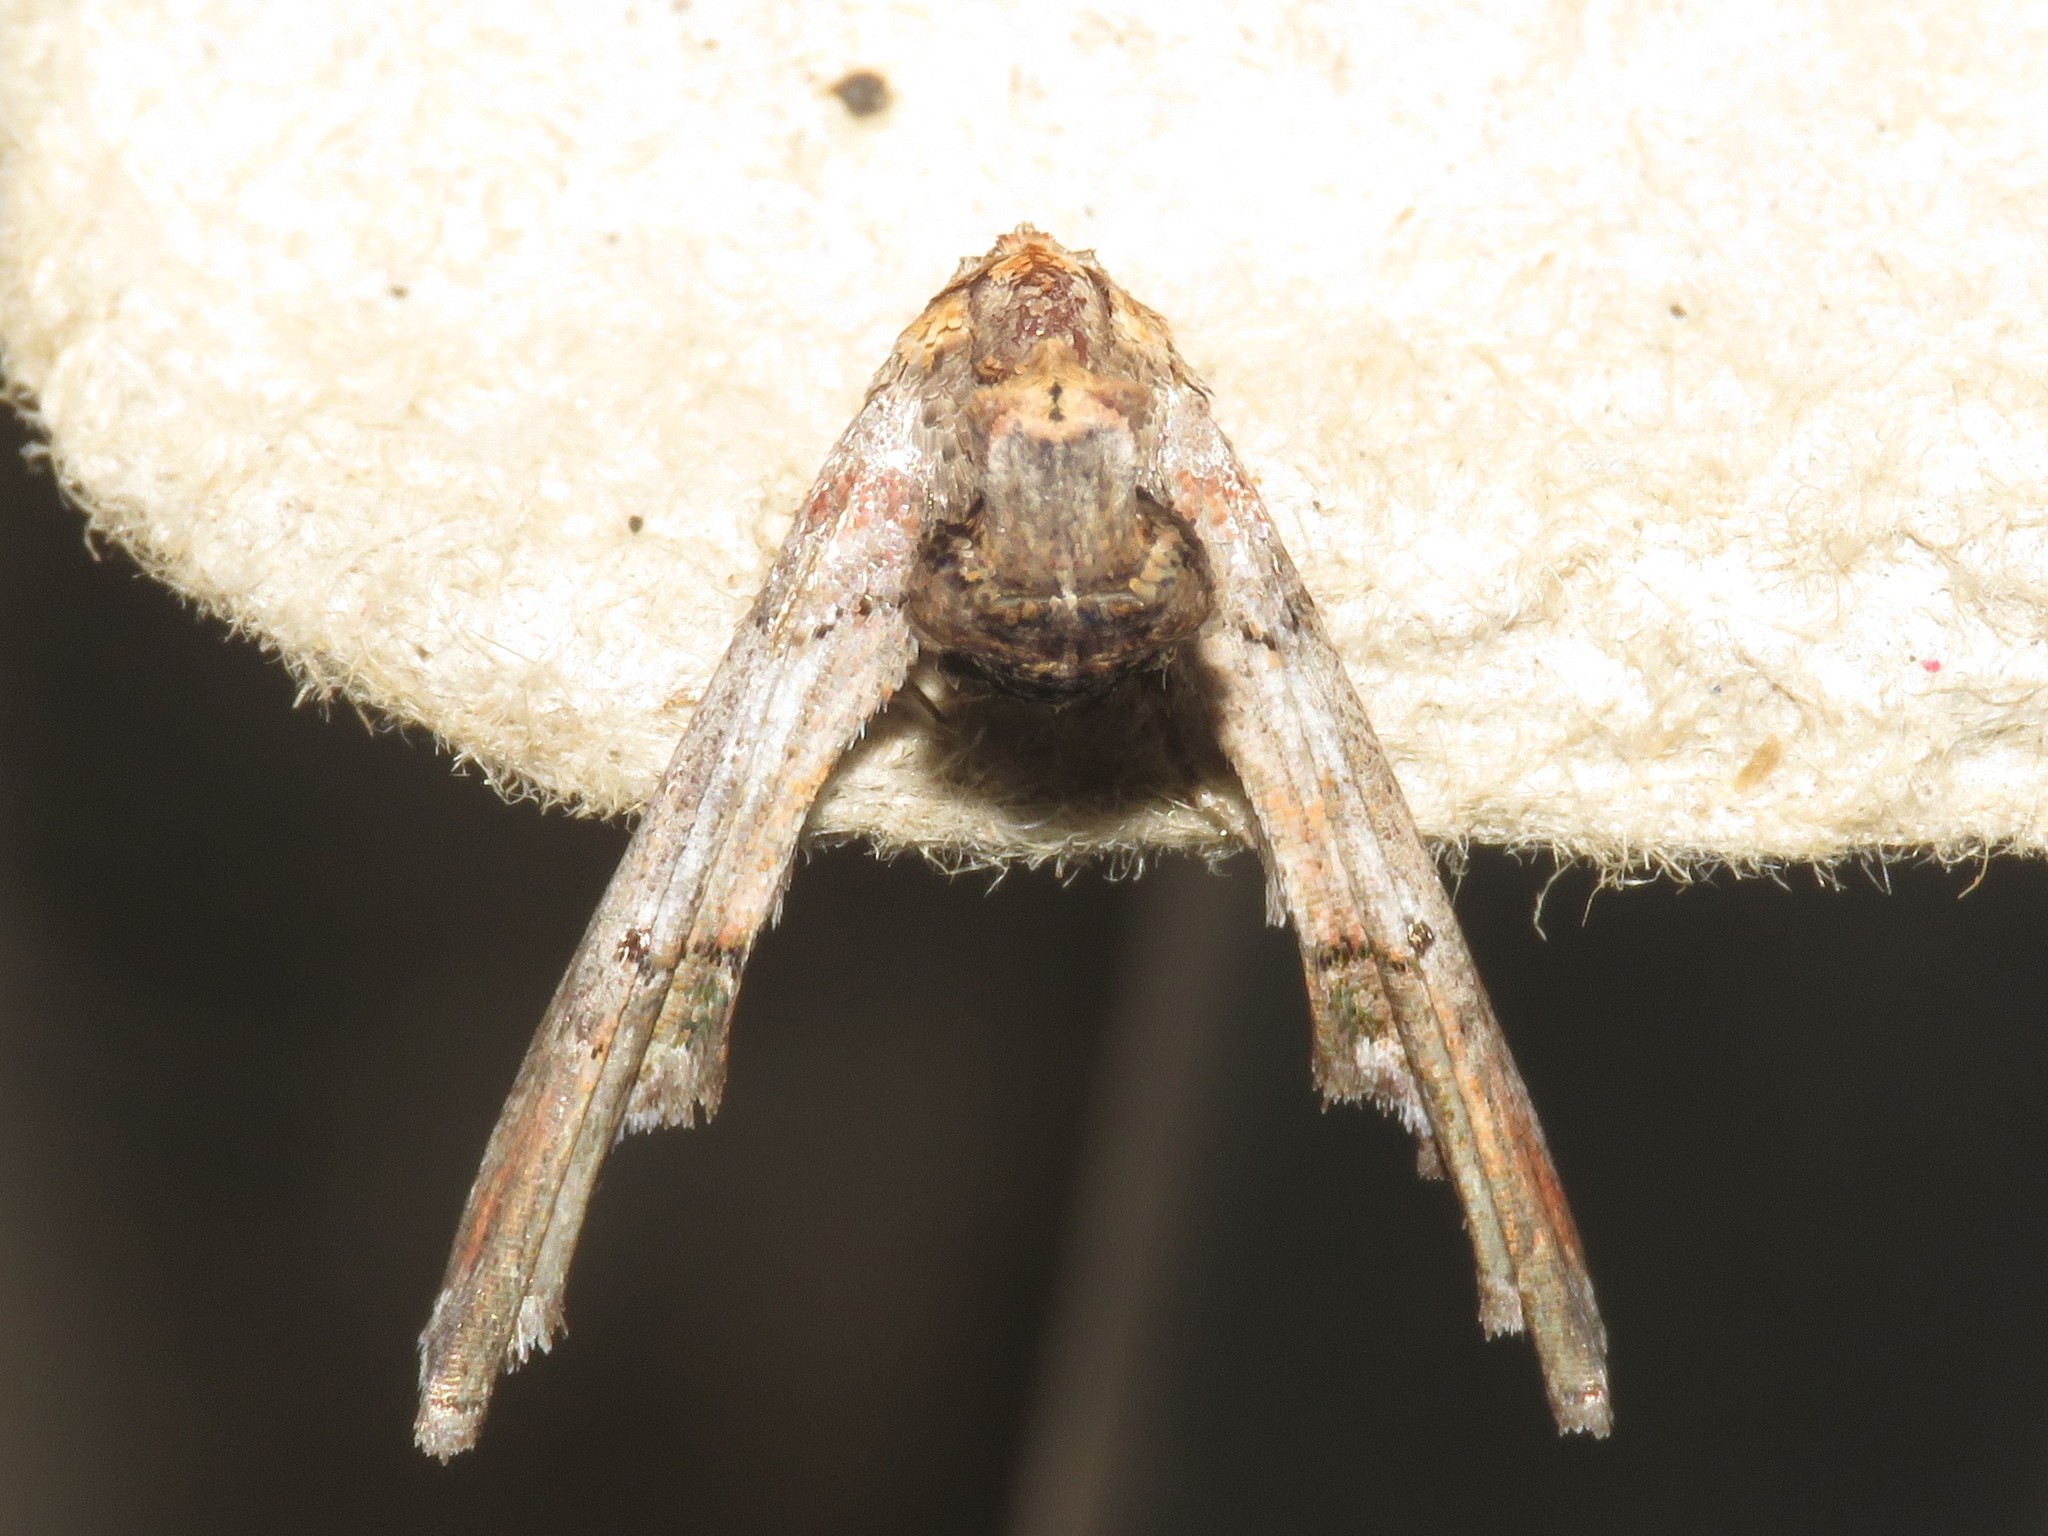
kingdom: Animalia
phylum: Arthropoda
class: Insecta
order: Lepidoptera
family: Euteliidae
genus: Marathyssa
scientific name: Marathyssa inficita
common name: Dark marathyssa moth
